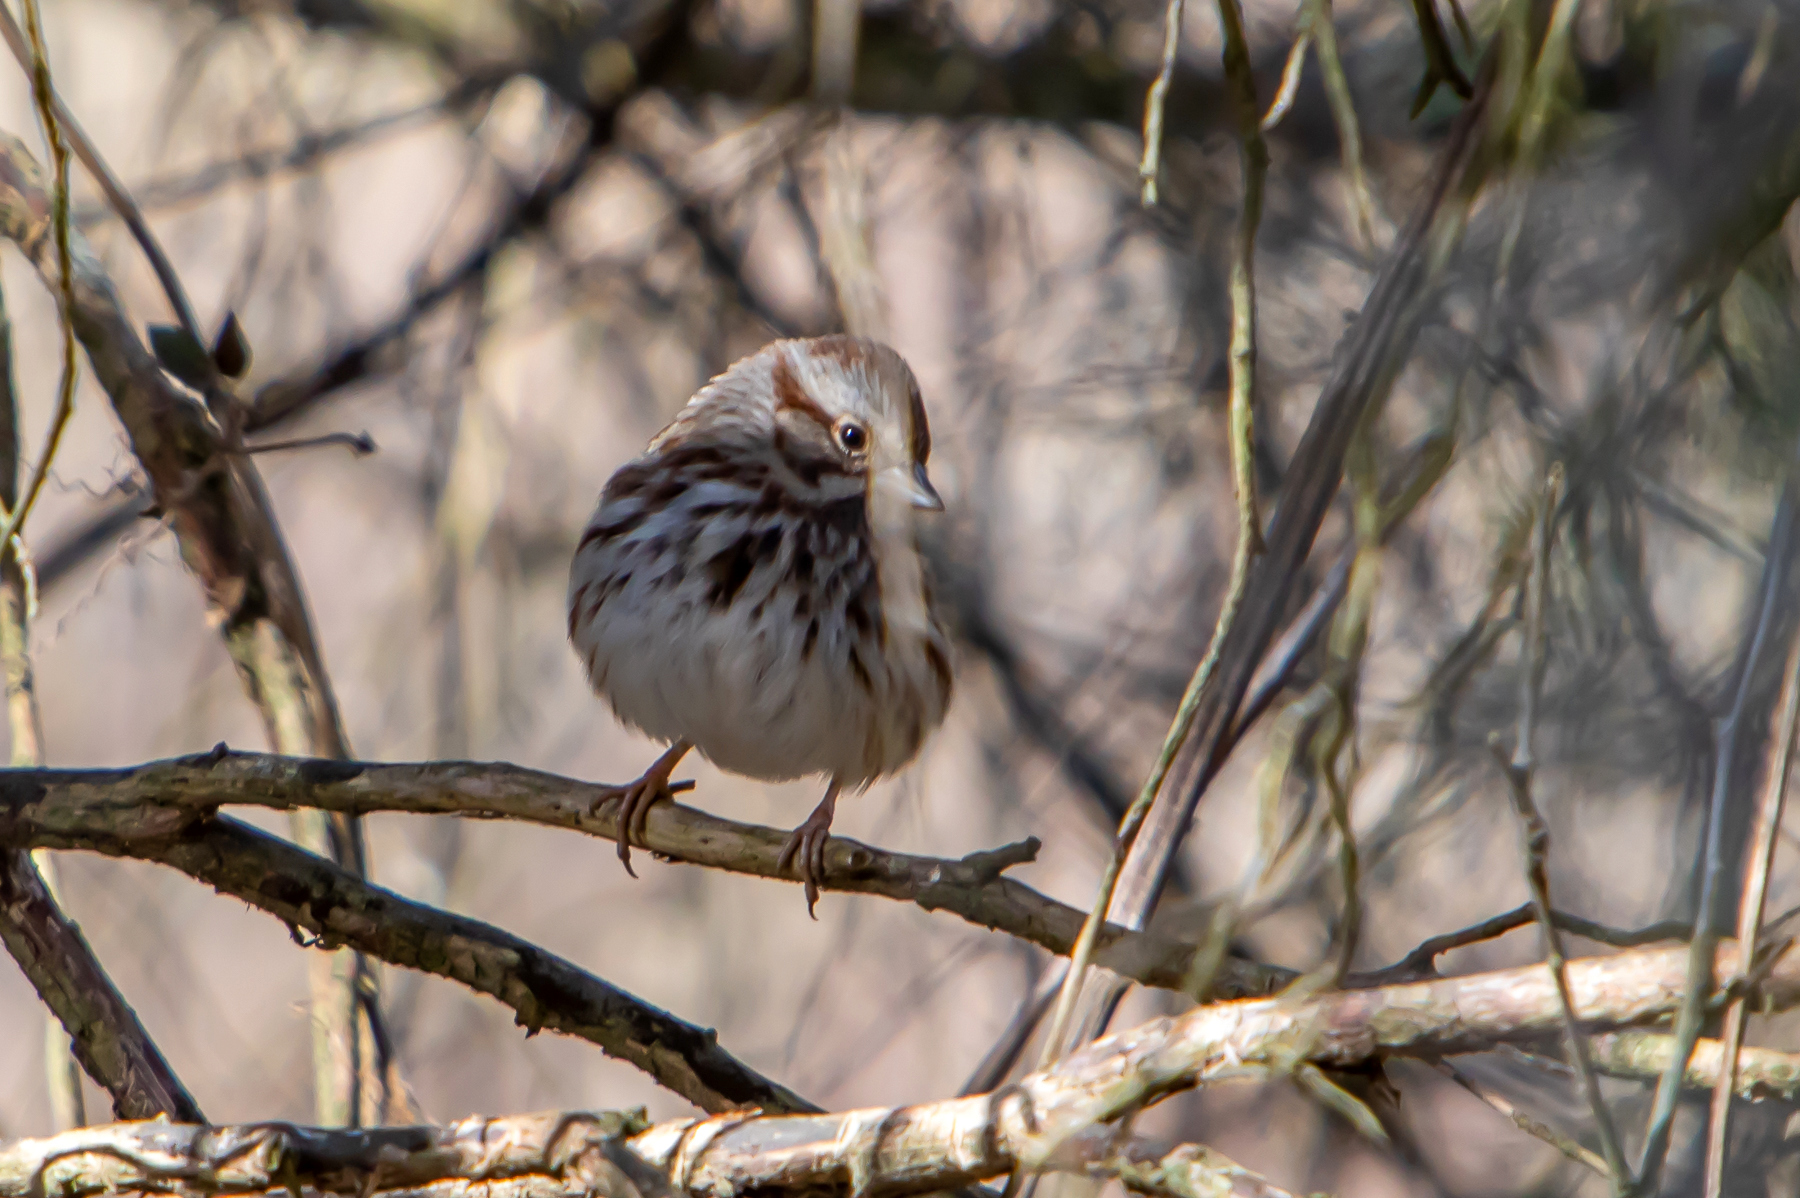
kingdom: Animalia
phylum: Chordata
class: Aves
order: Passeriformes
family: Passerellidae
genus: Melospiza
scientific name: Melospiza melodia
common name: Song sparrow
